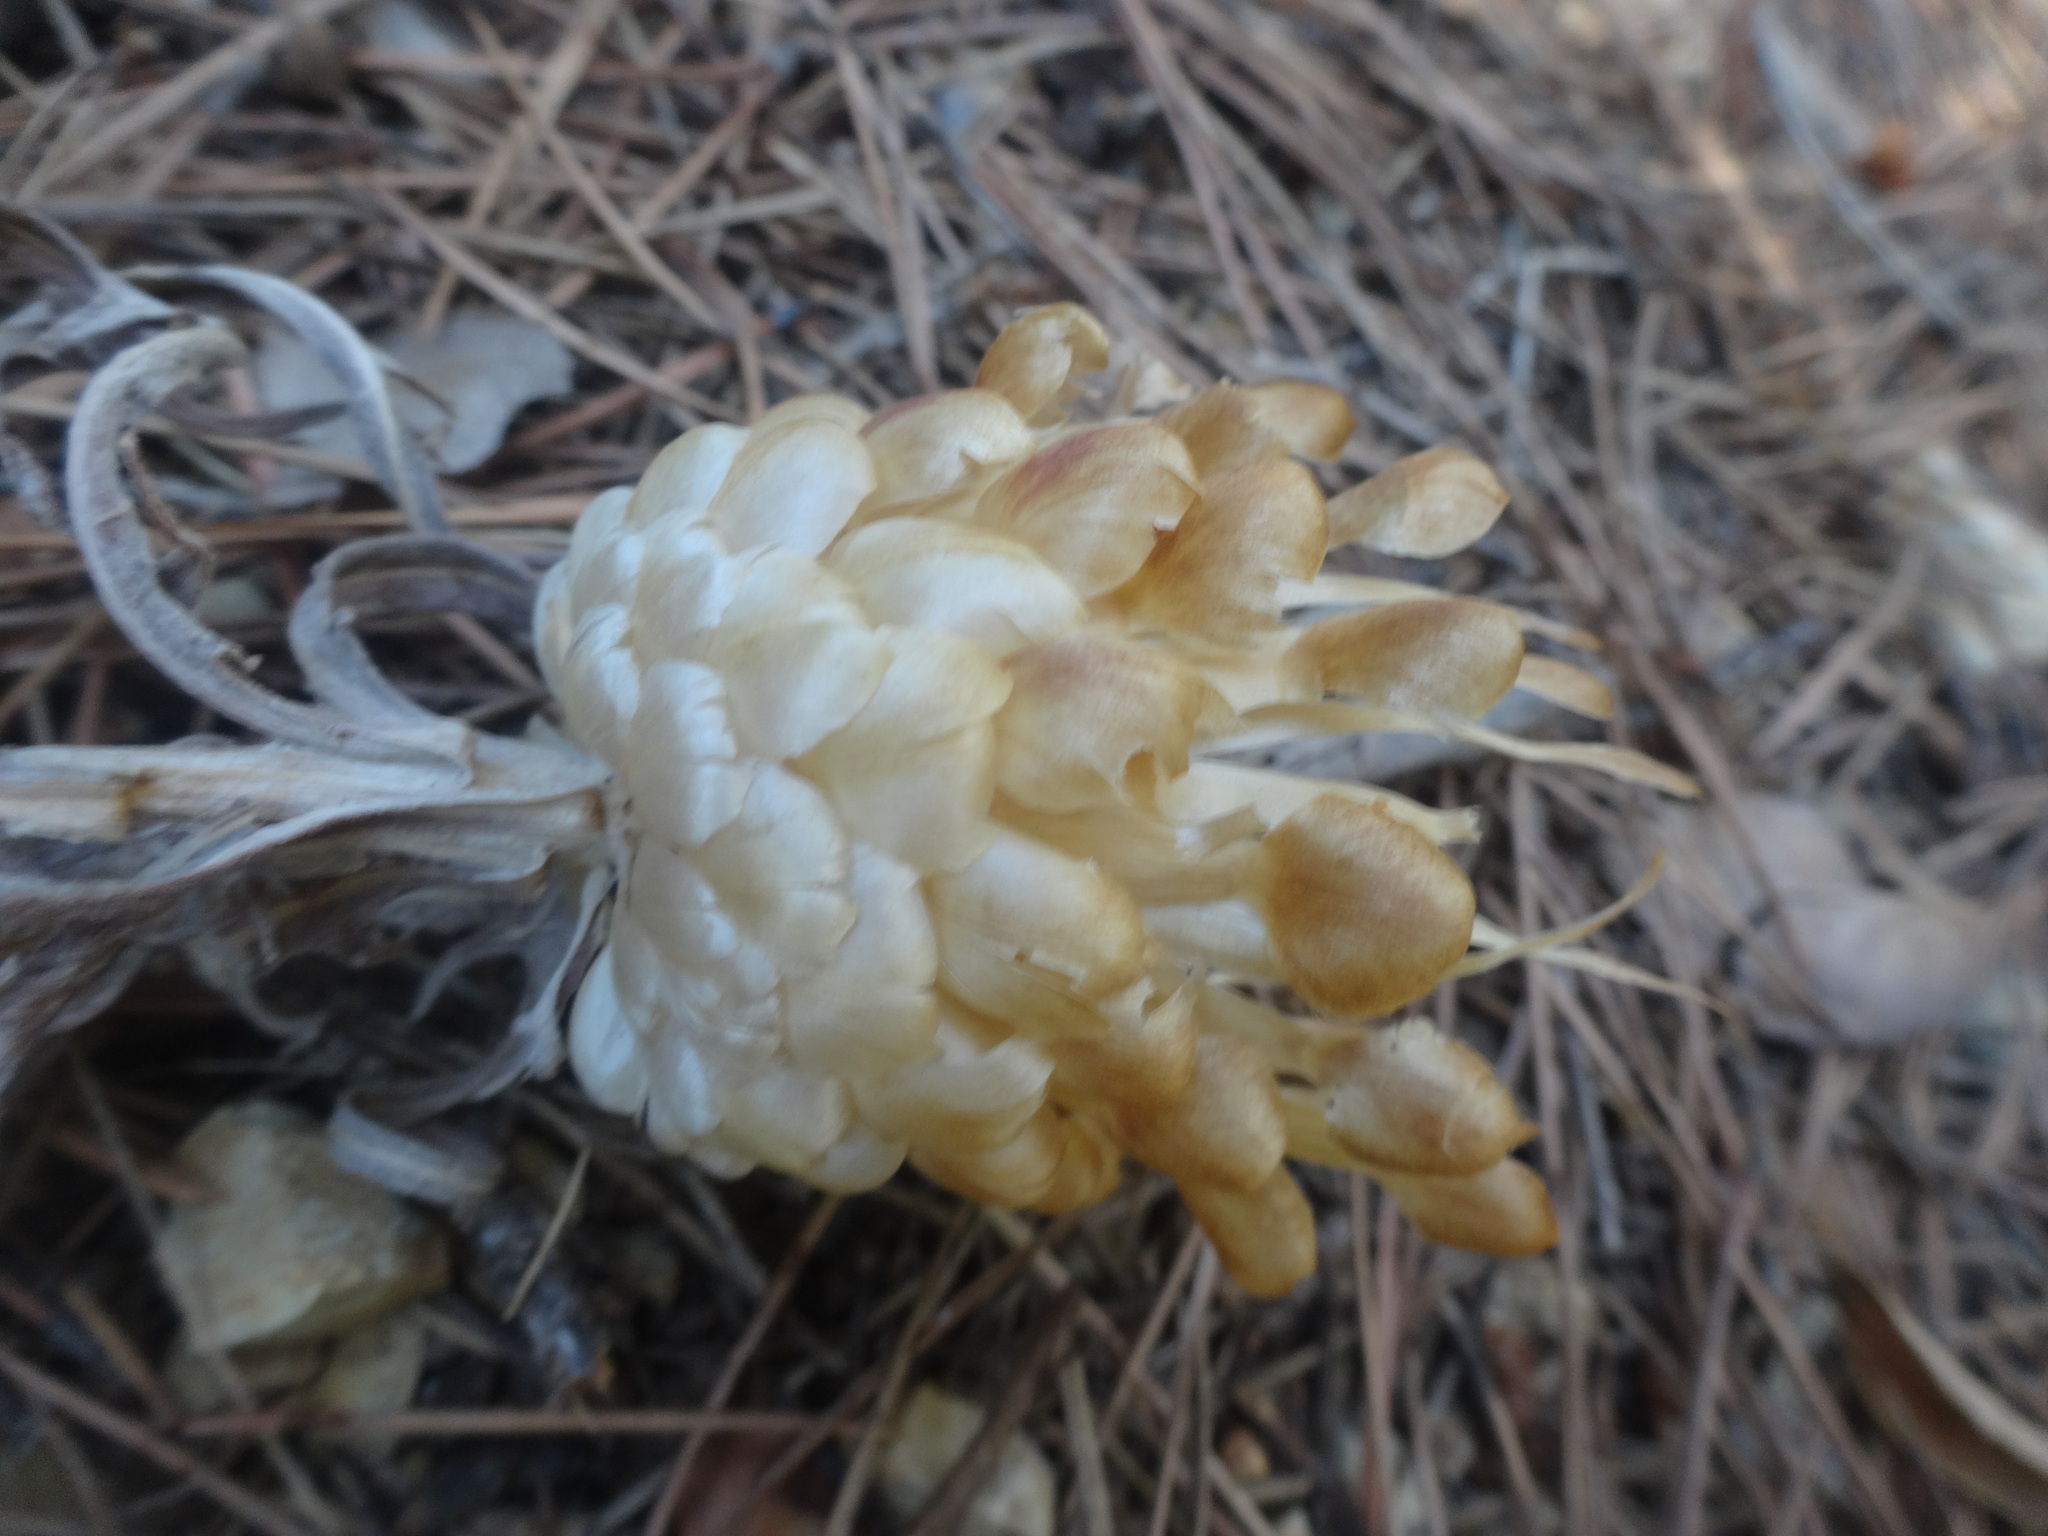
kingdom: Plantae
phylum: Tracheophyta
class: Magnoliopsida
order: Asterales
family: Asteraceae
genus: Leuzea
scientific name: Leuzea conifera
